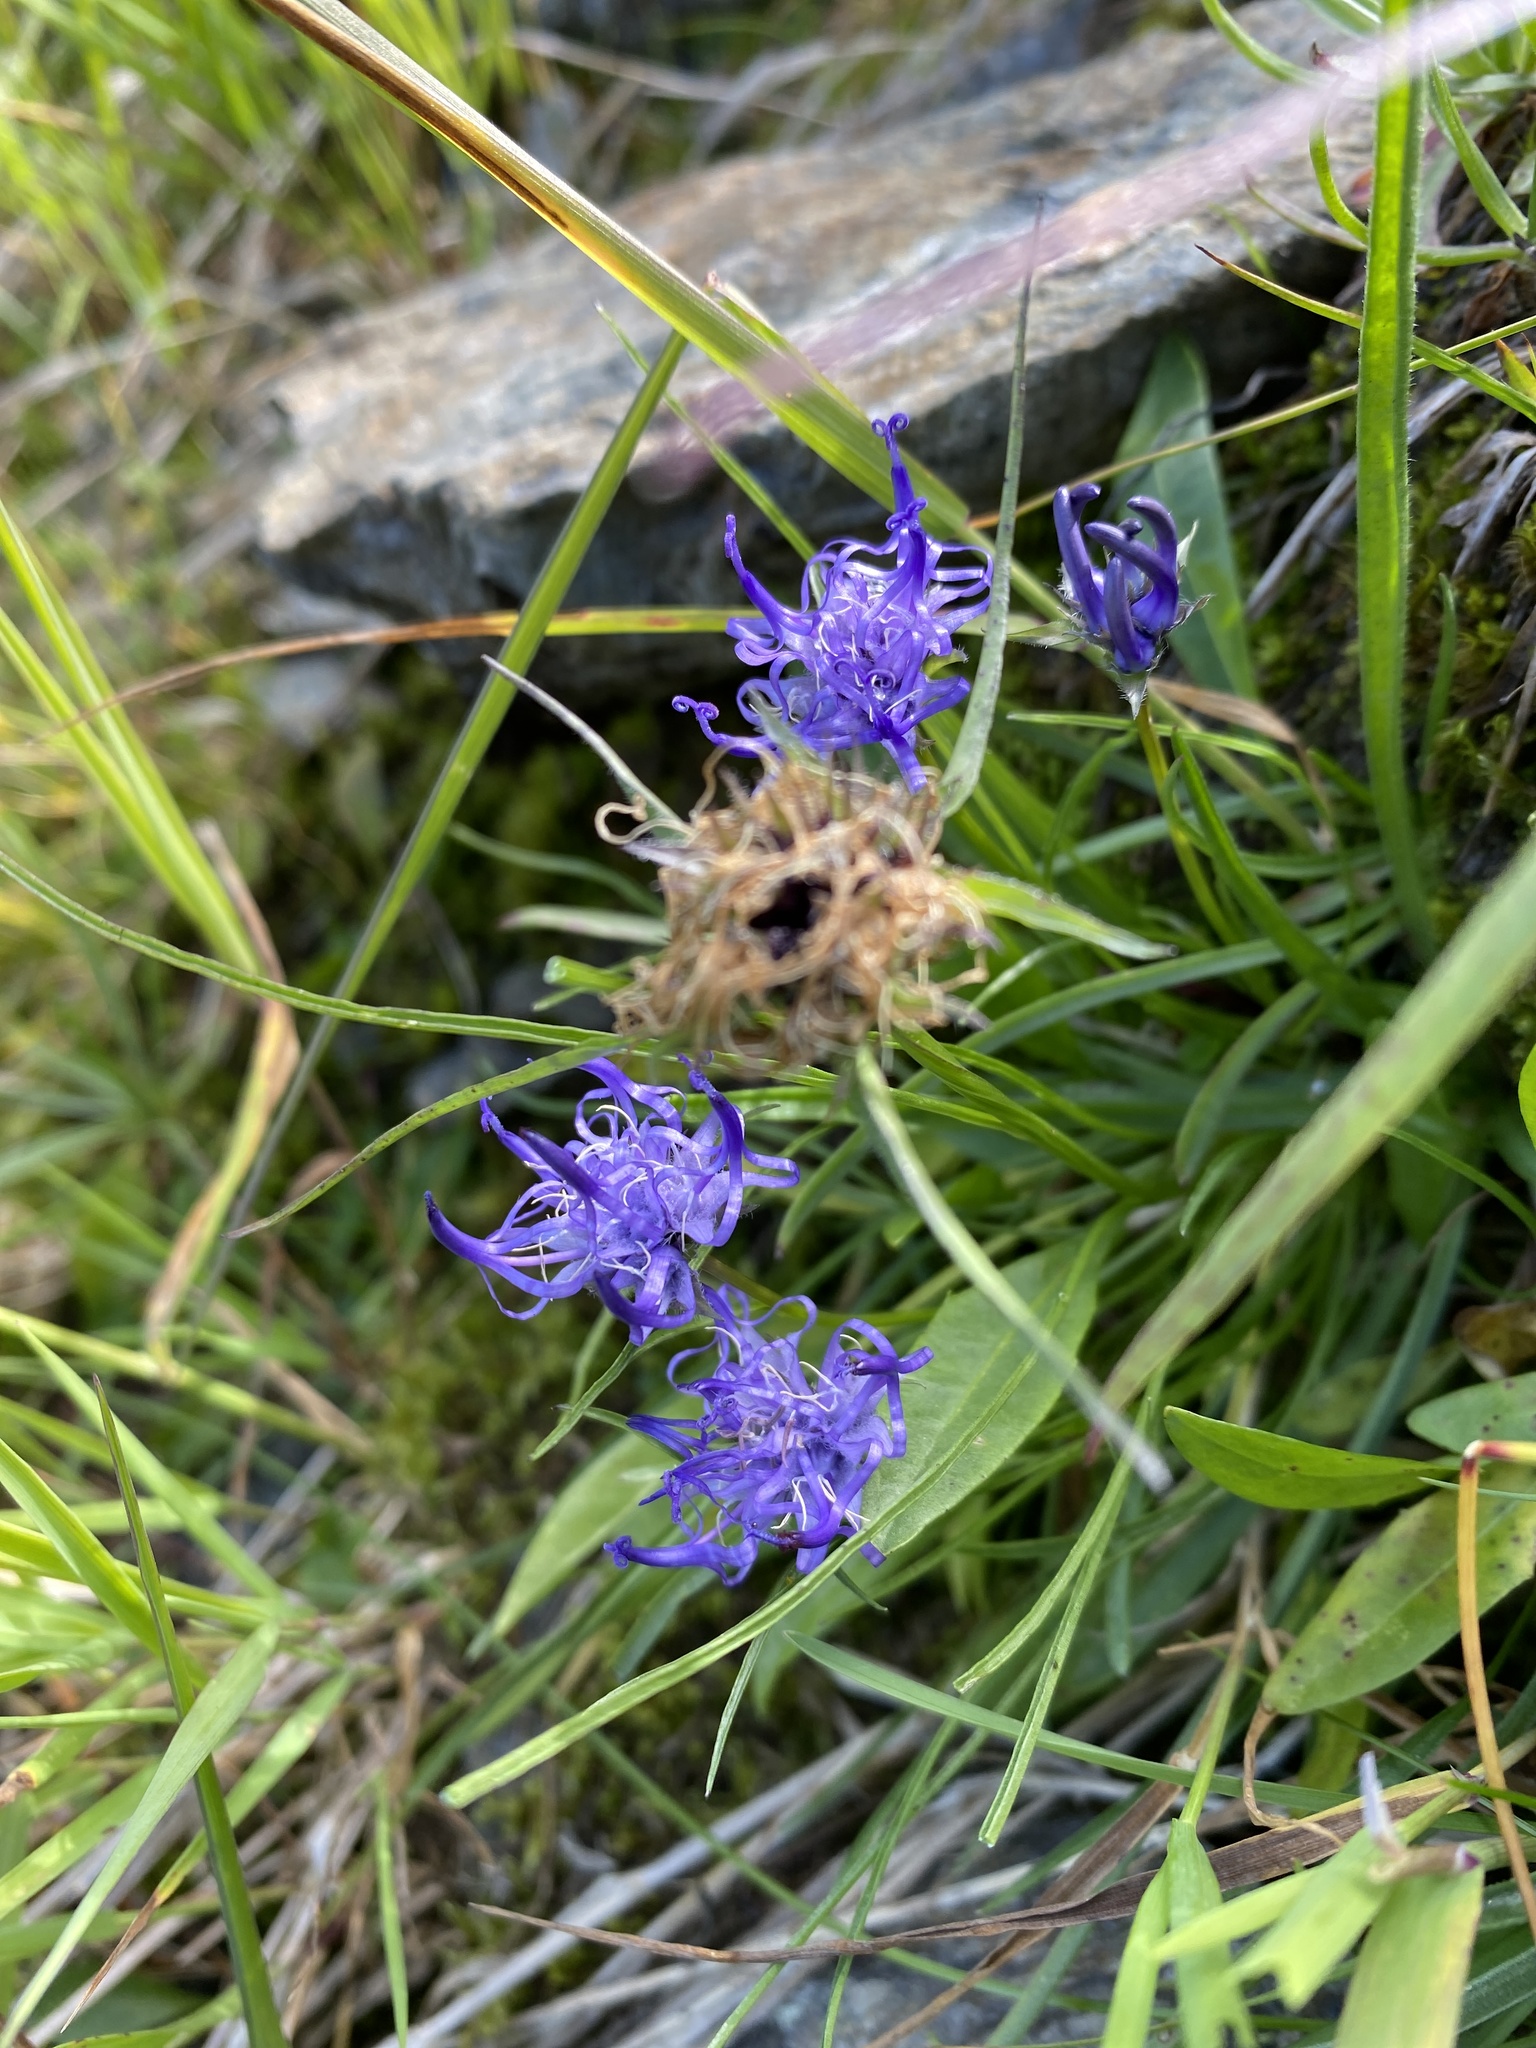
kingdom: Plantae
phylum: Tracheophyta
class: Magnoliopsida
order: Asterales
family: Campanulaceae
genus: Phyteuma
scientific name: Phyteuma hemisphaericum
